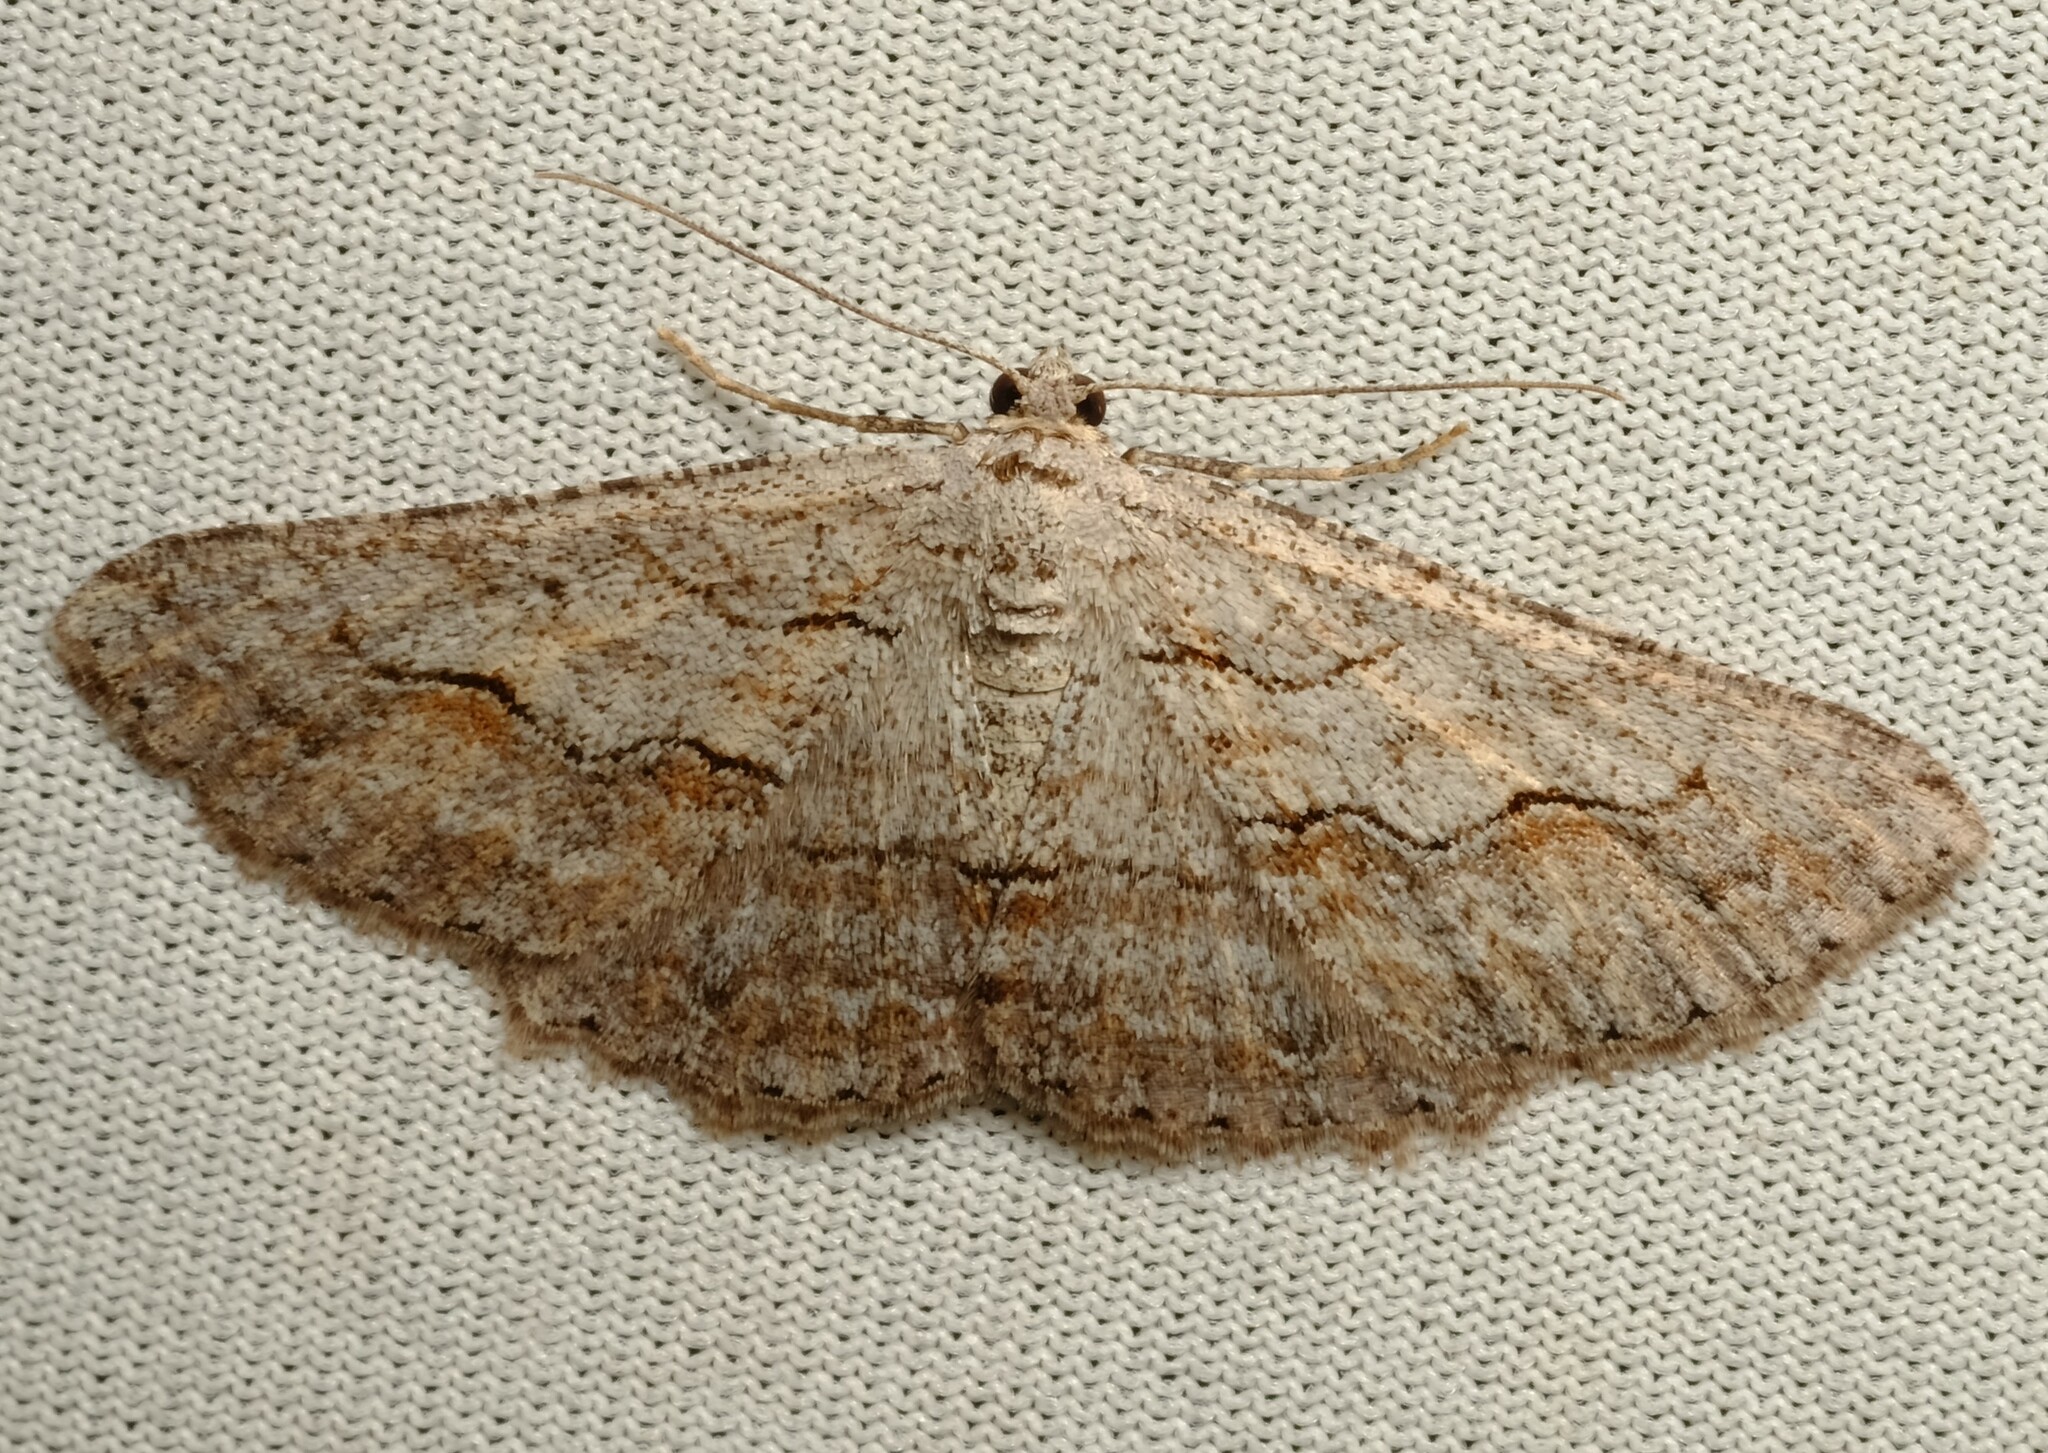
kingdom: Animalia
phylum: Arthropoda
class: Insecta
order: Lepidoptera
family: Geometridae
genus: Syneora
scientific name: Syneora mundifera
